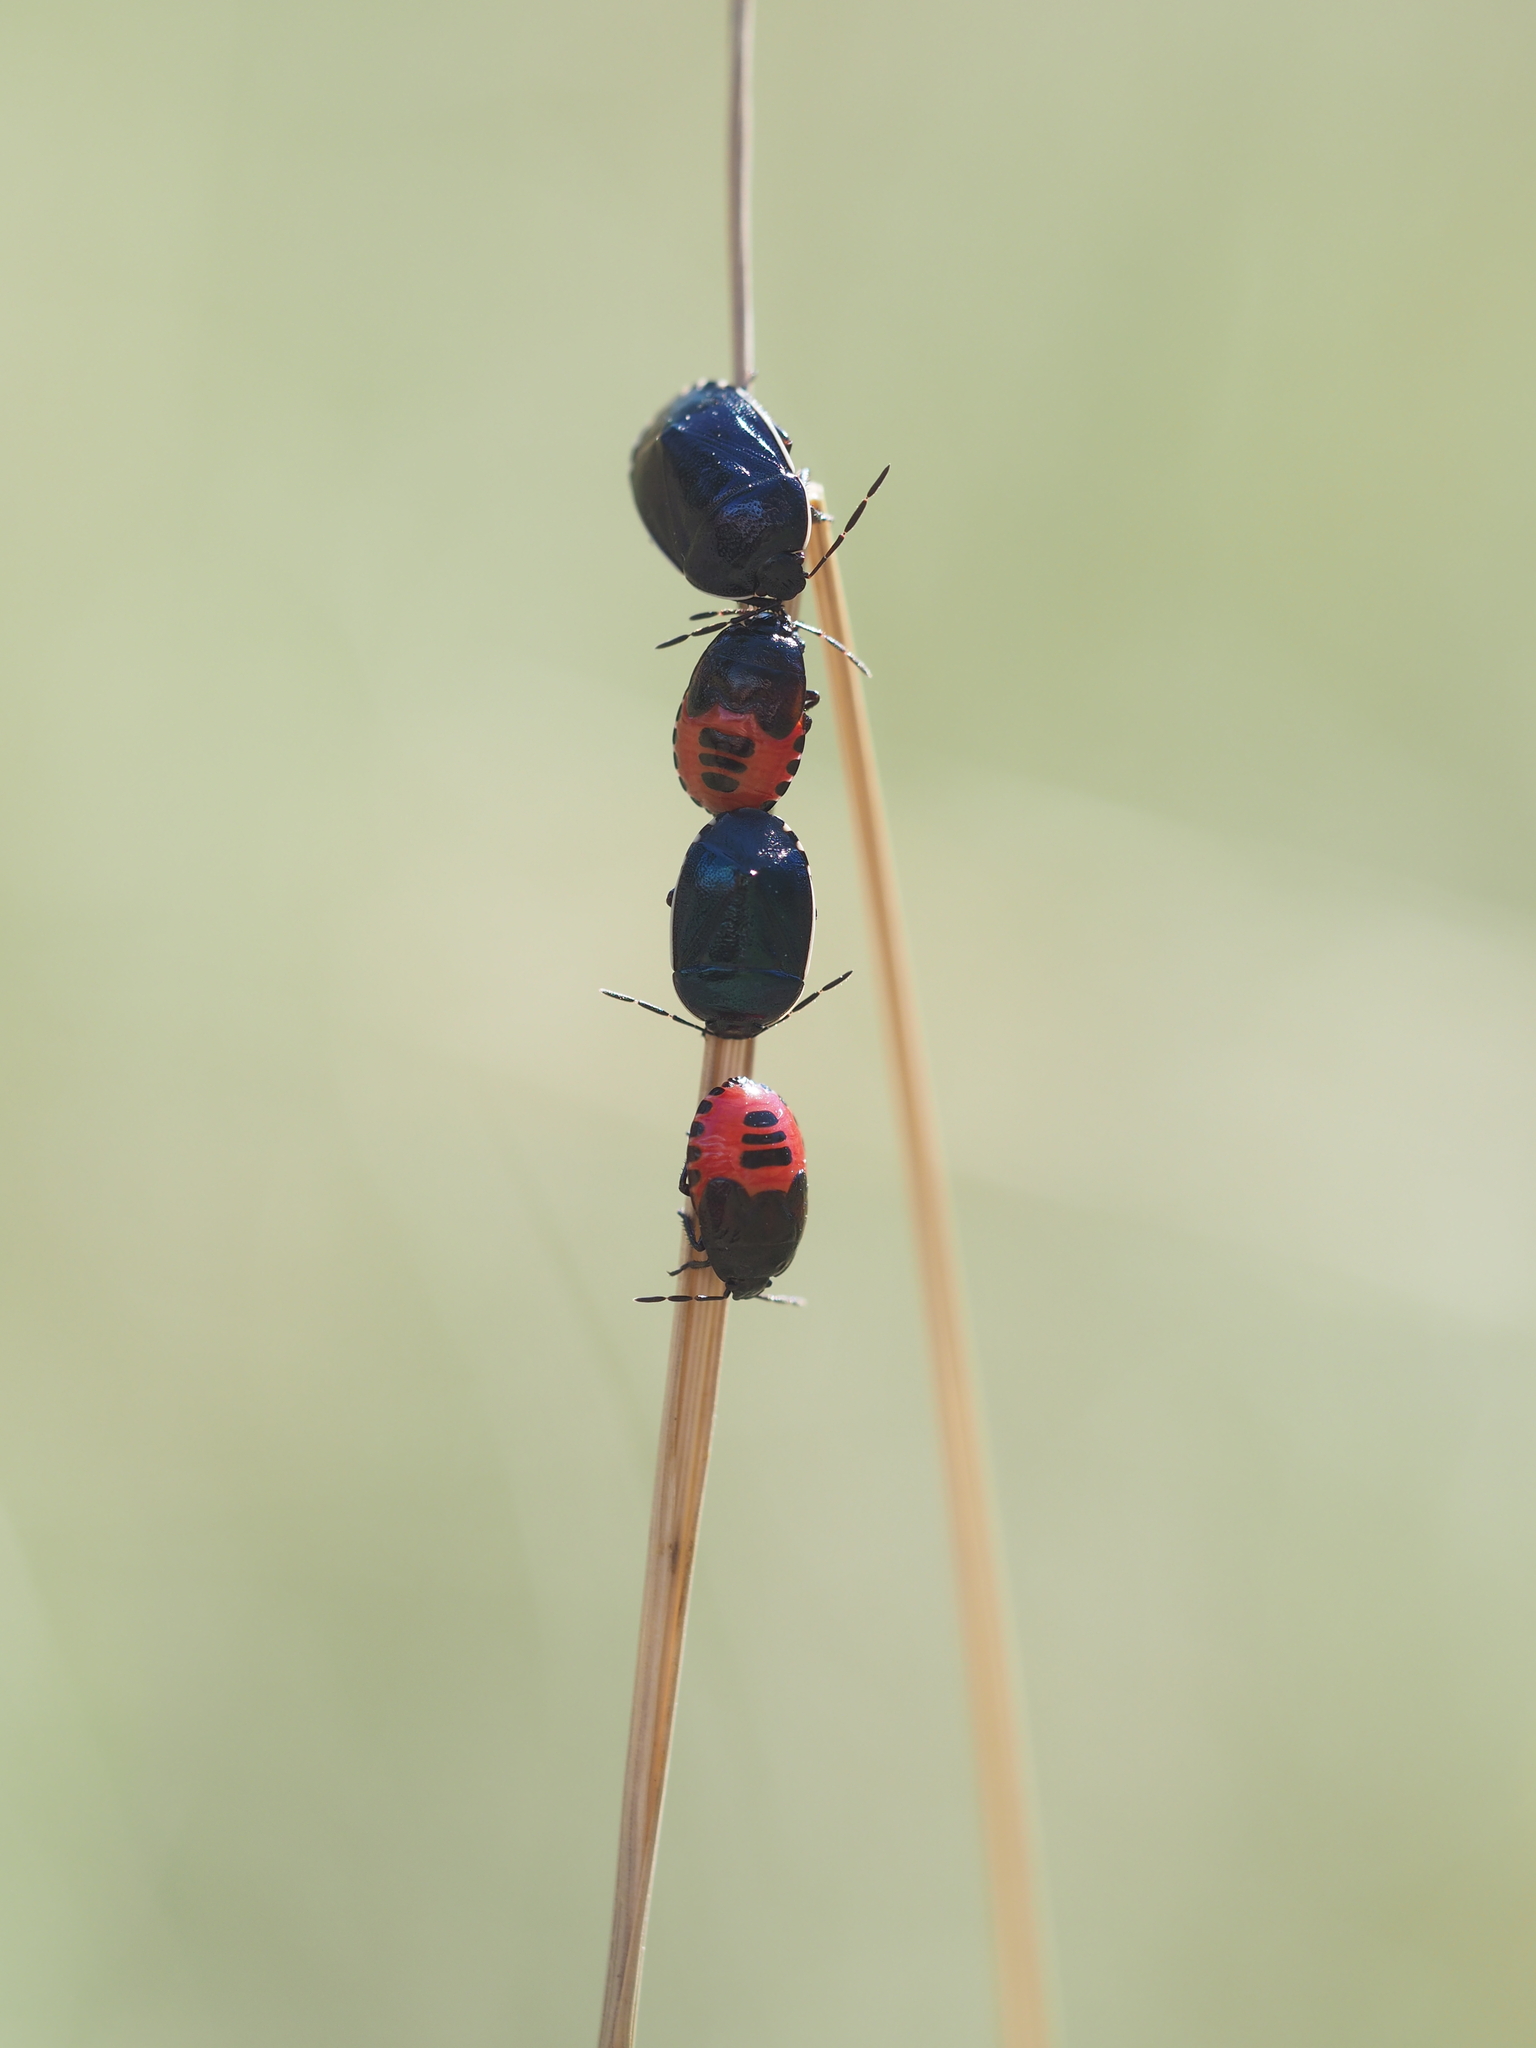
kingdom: Animalia
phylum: Arthropoda
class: Insecta
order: Hemiptera
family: Cydnidae
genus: Canthophorus
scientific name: Canthophorus melanopterus
